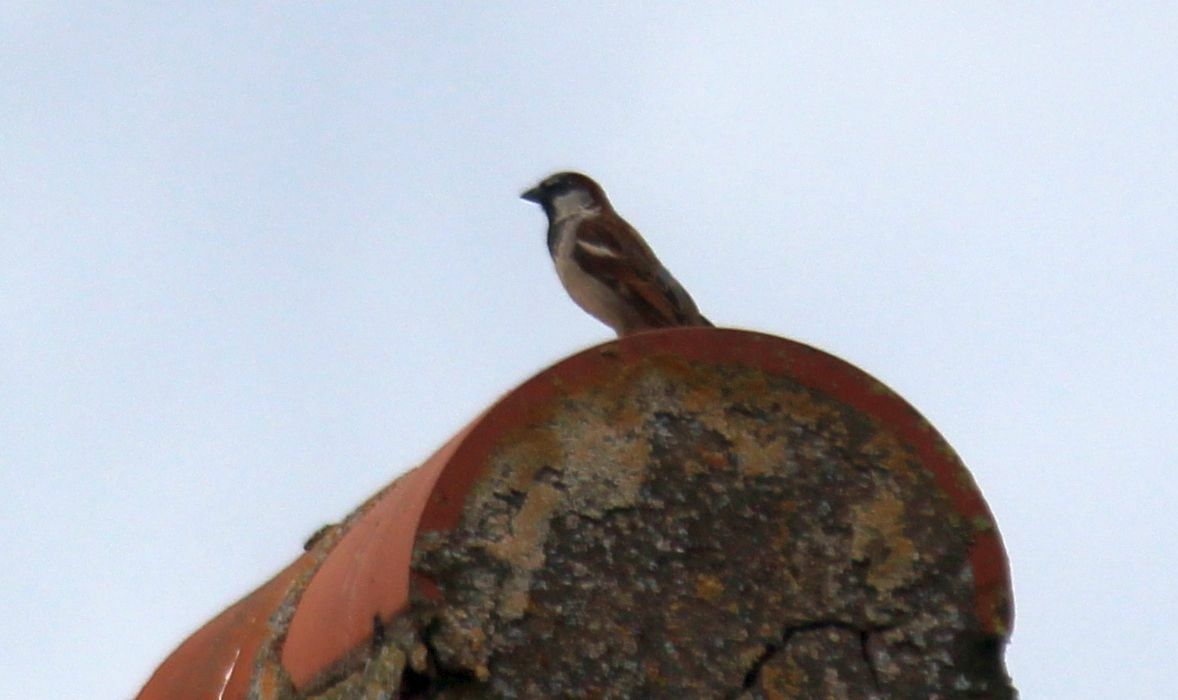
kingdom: Animalia
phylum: Chordata
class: Aves
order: Passeriformes
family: Passeridae
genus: Passer
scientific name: Passer domesticus
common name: House sparrow
